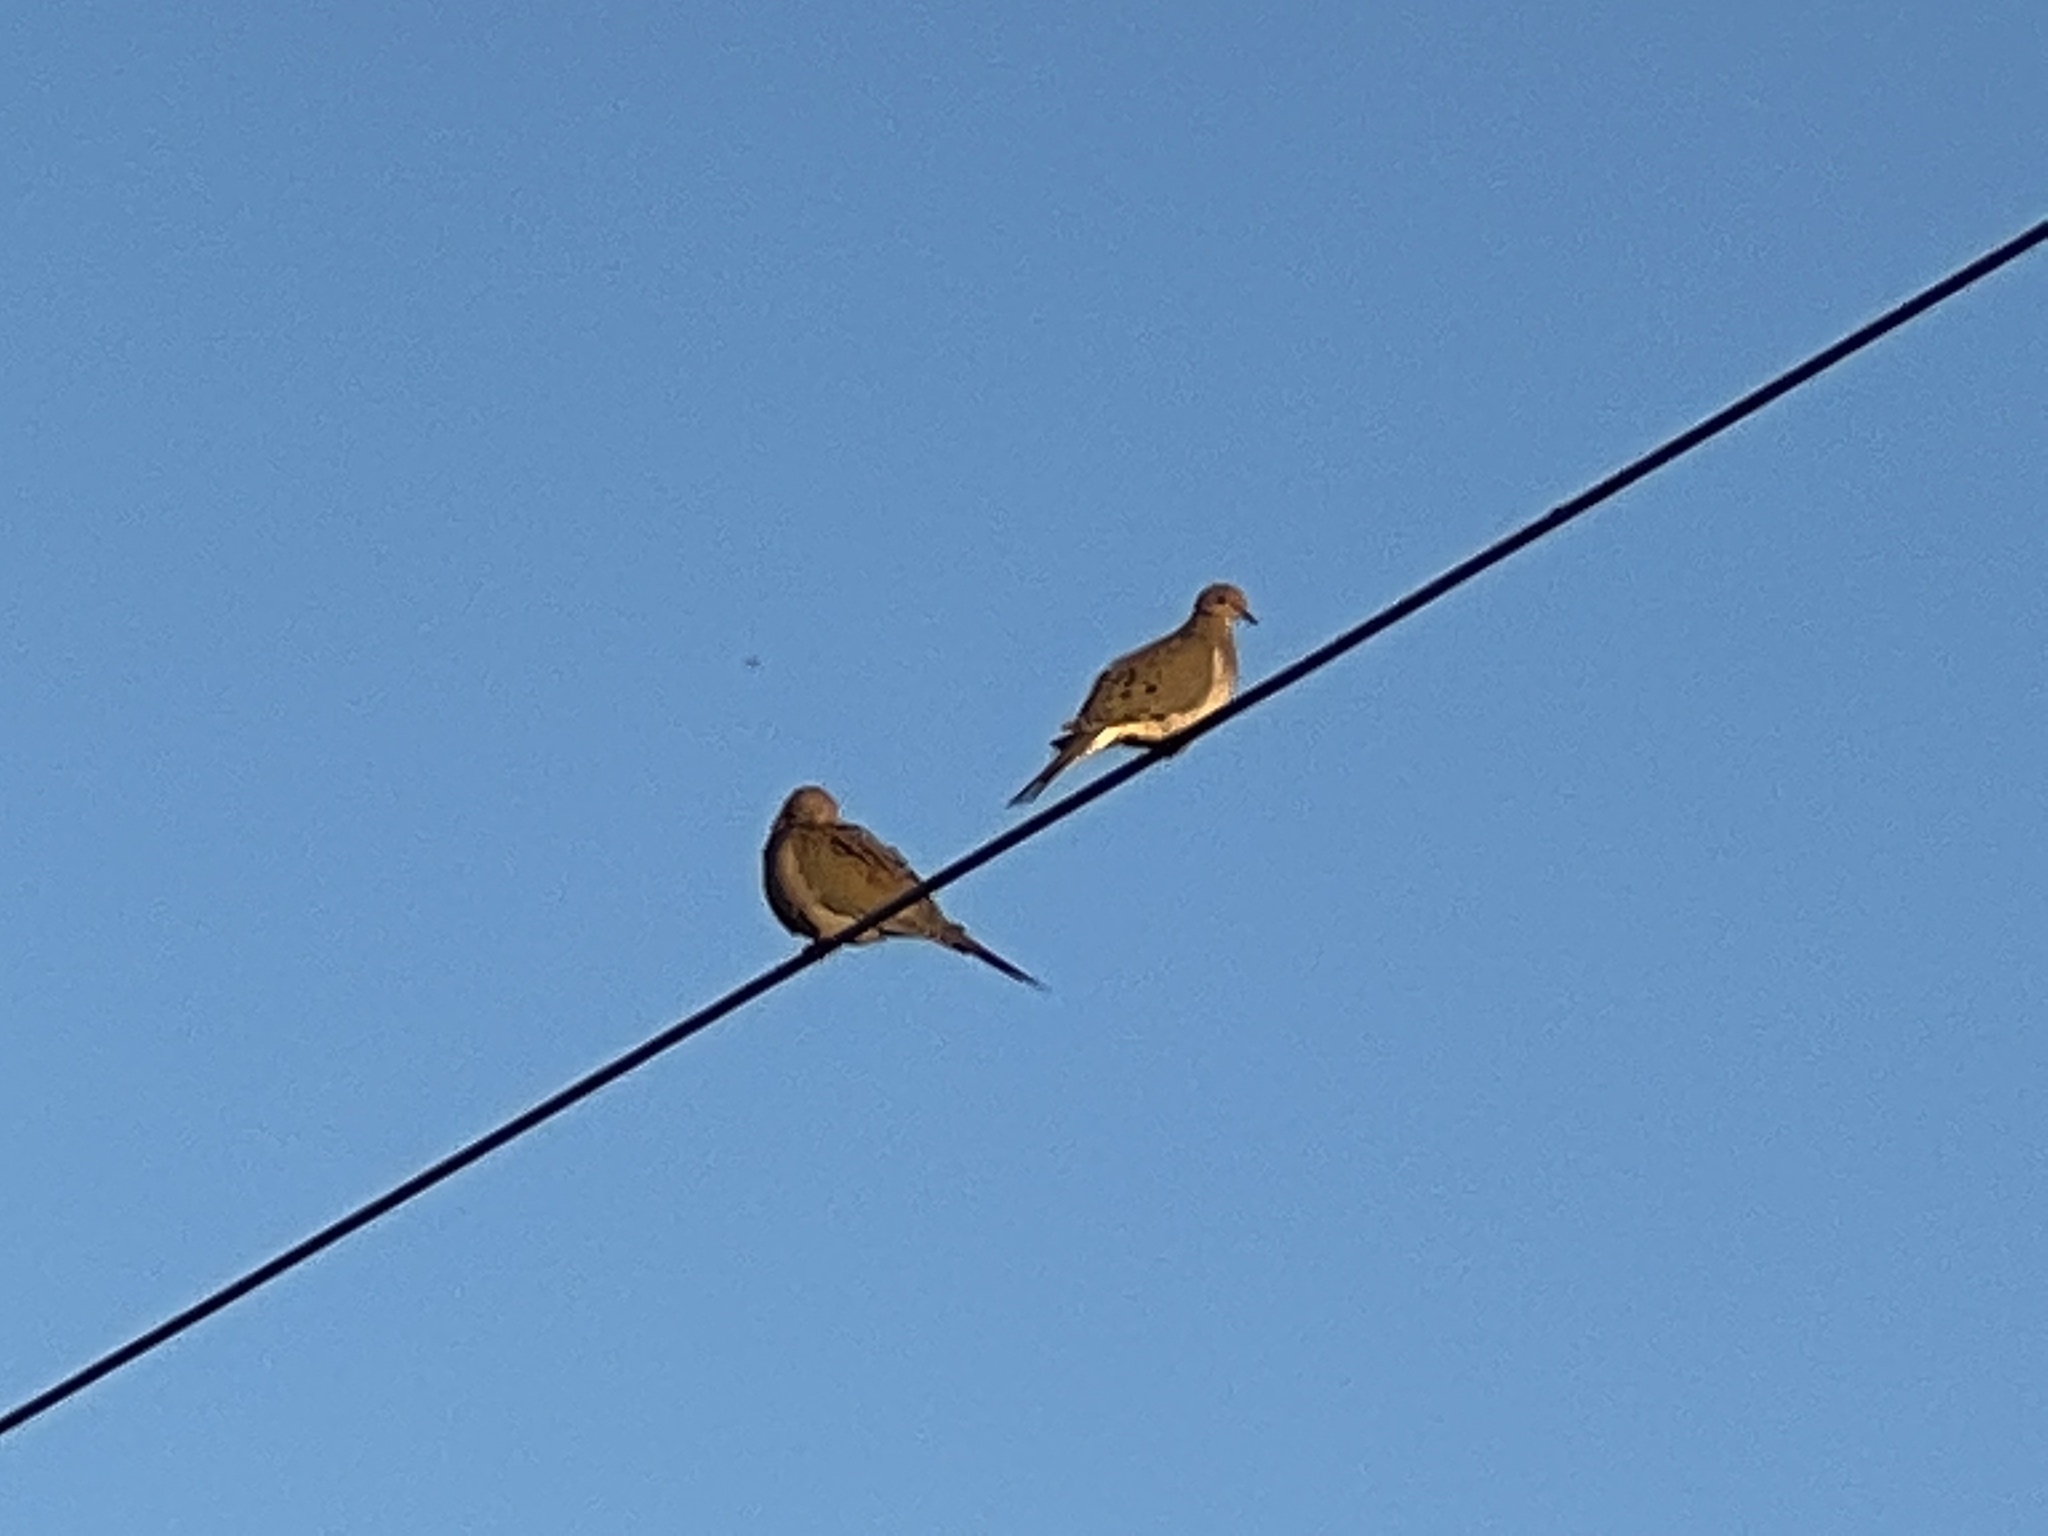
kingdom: Animalia
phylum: Chordata
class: Aves
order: Columbiformes
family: Columbidae
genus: Zenaida
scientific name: Zenaida macroura
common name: Mourning dove
